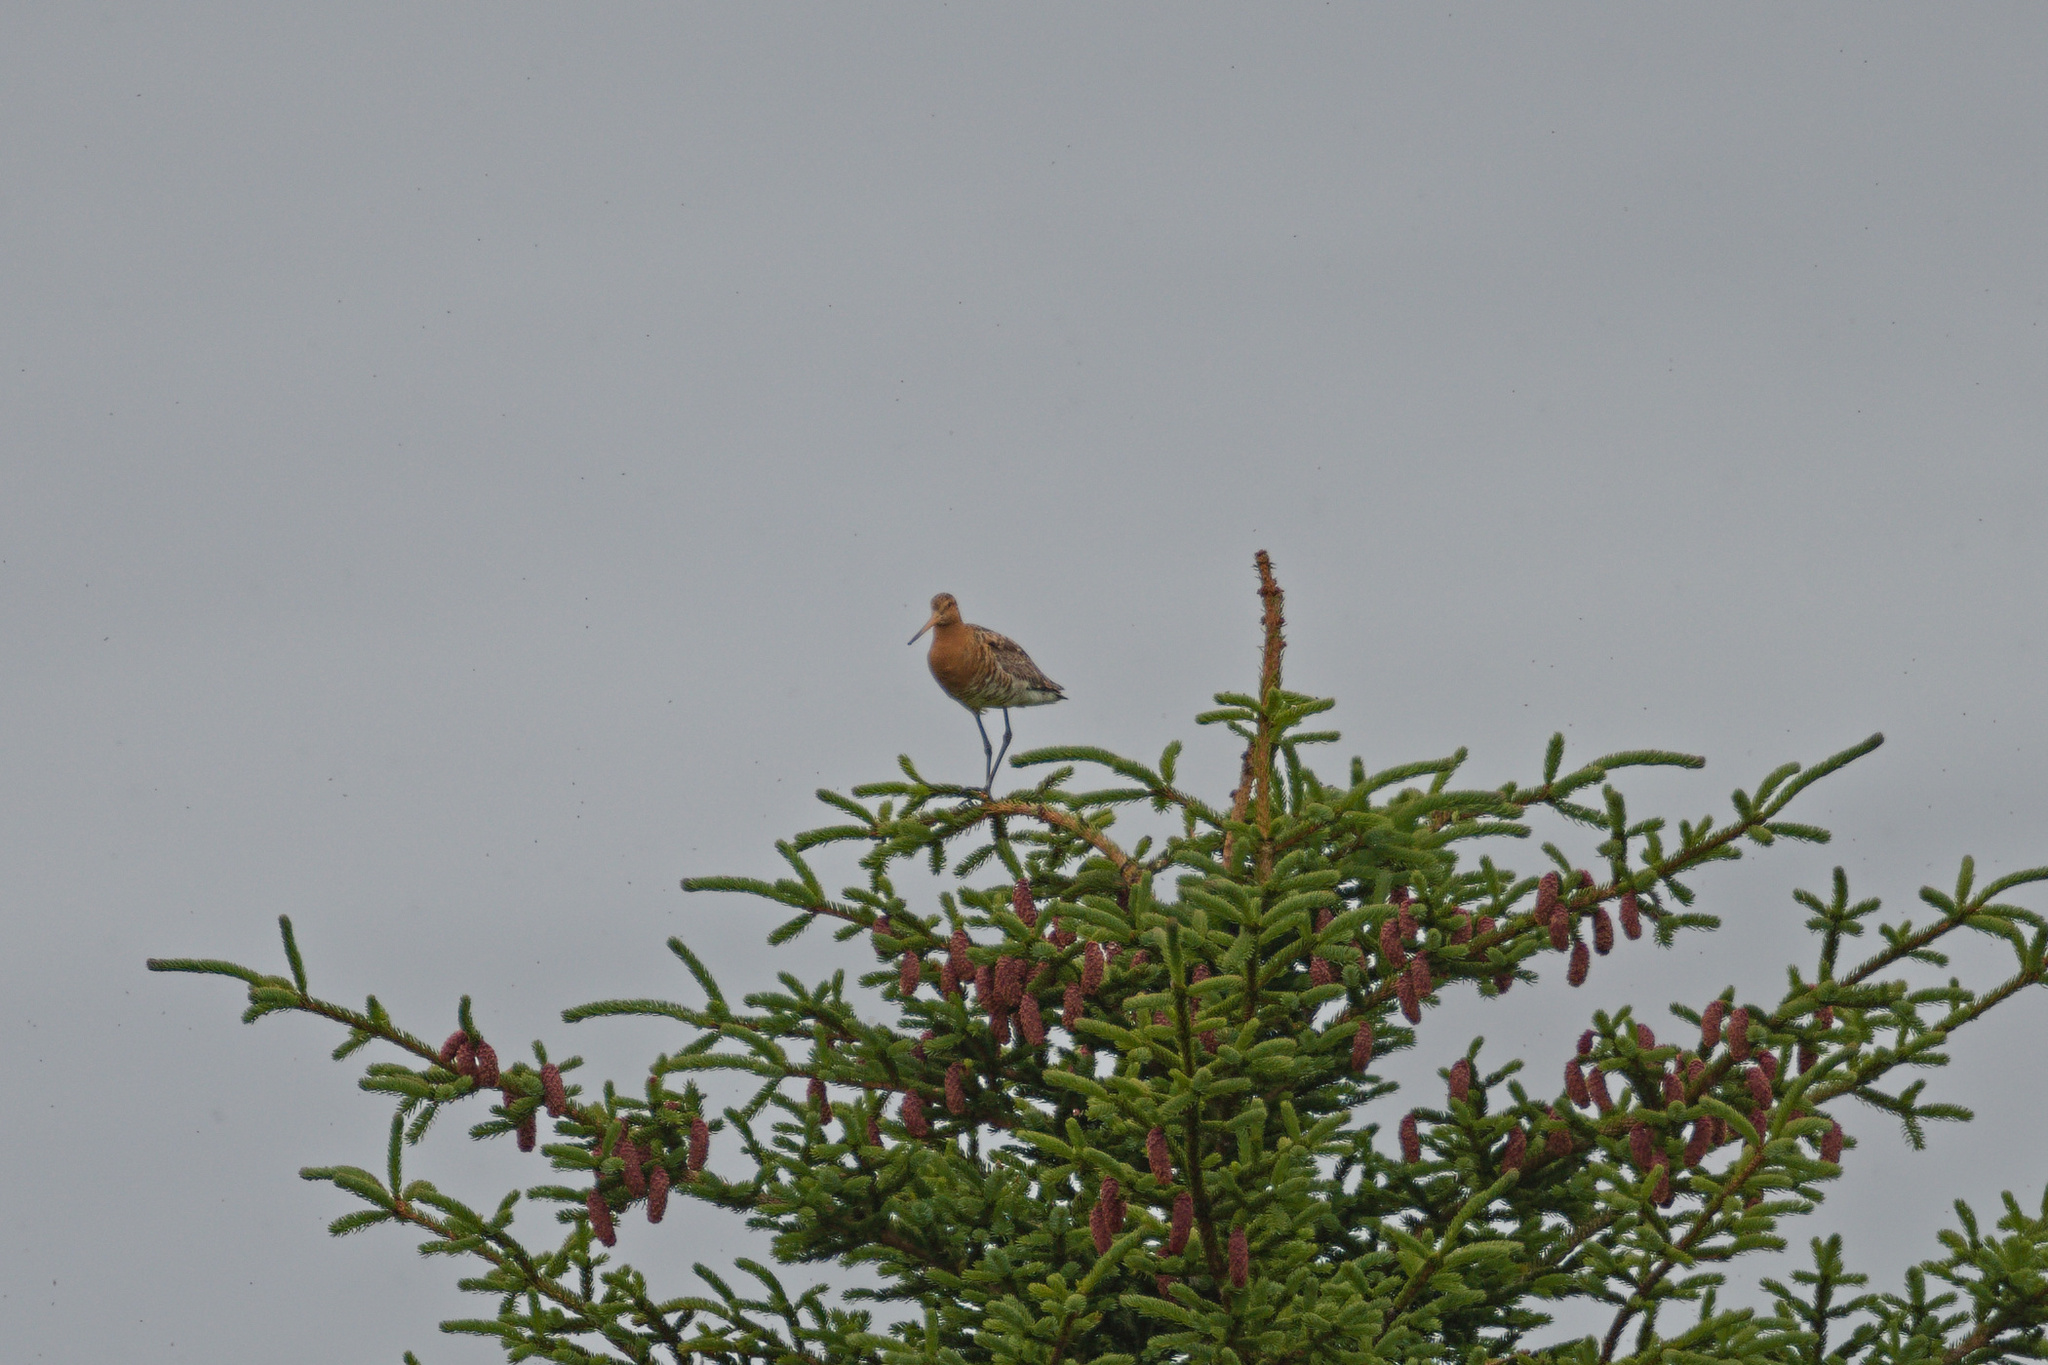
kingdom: Animalia
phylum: Chordata
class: Aves
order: Charadriiformes
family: Scolopacidae
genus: Limosa
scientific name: Limosa limosa
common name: Black-tailed godwit
